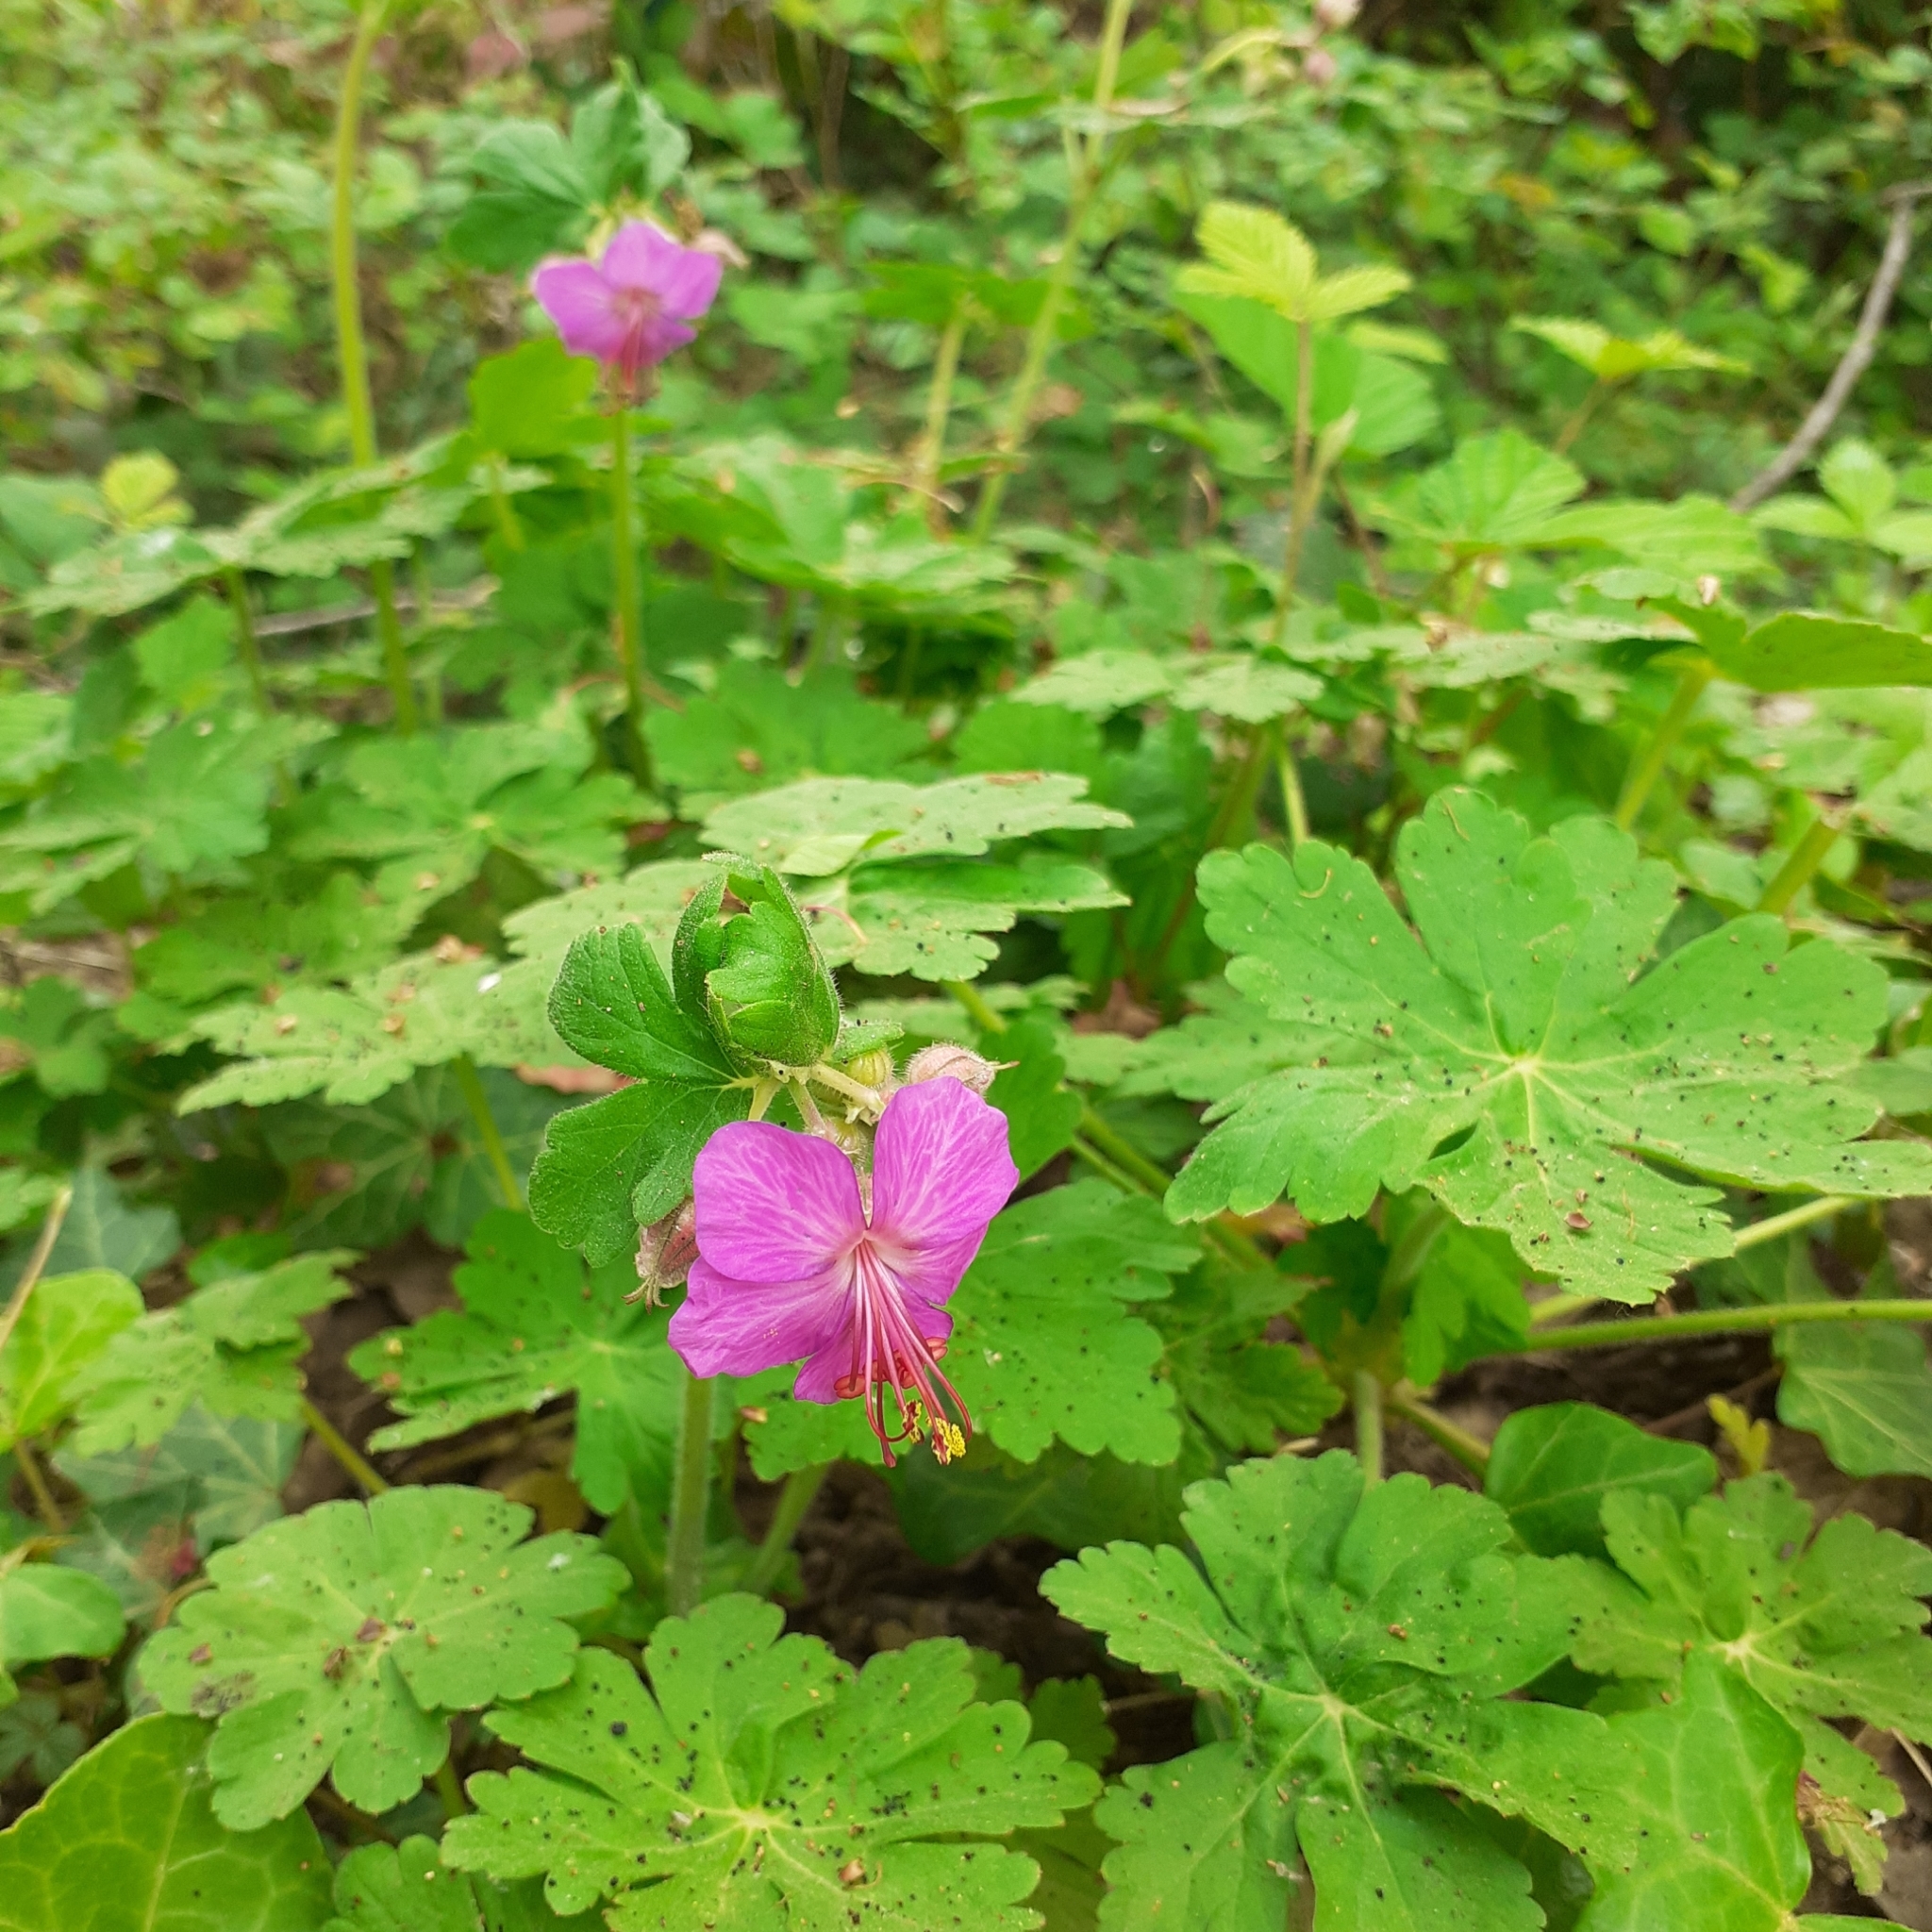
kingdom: Plantae
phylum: Tracheophyta
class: Magnoliopsida
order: Geraniales
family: Geraniaceae
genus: Geranium
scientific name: Geranium macrorrhizum
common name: Rock crane's-bill
